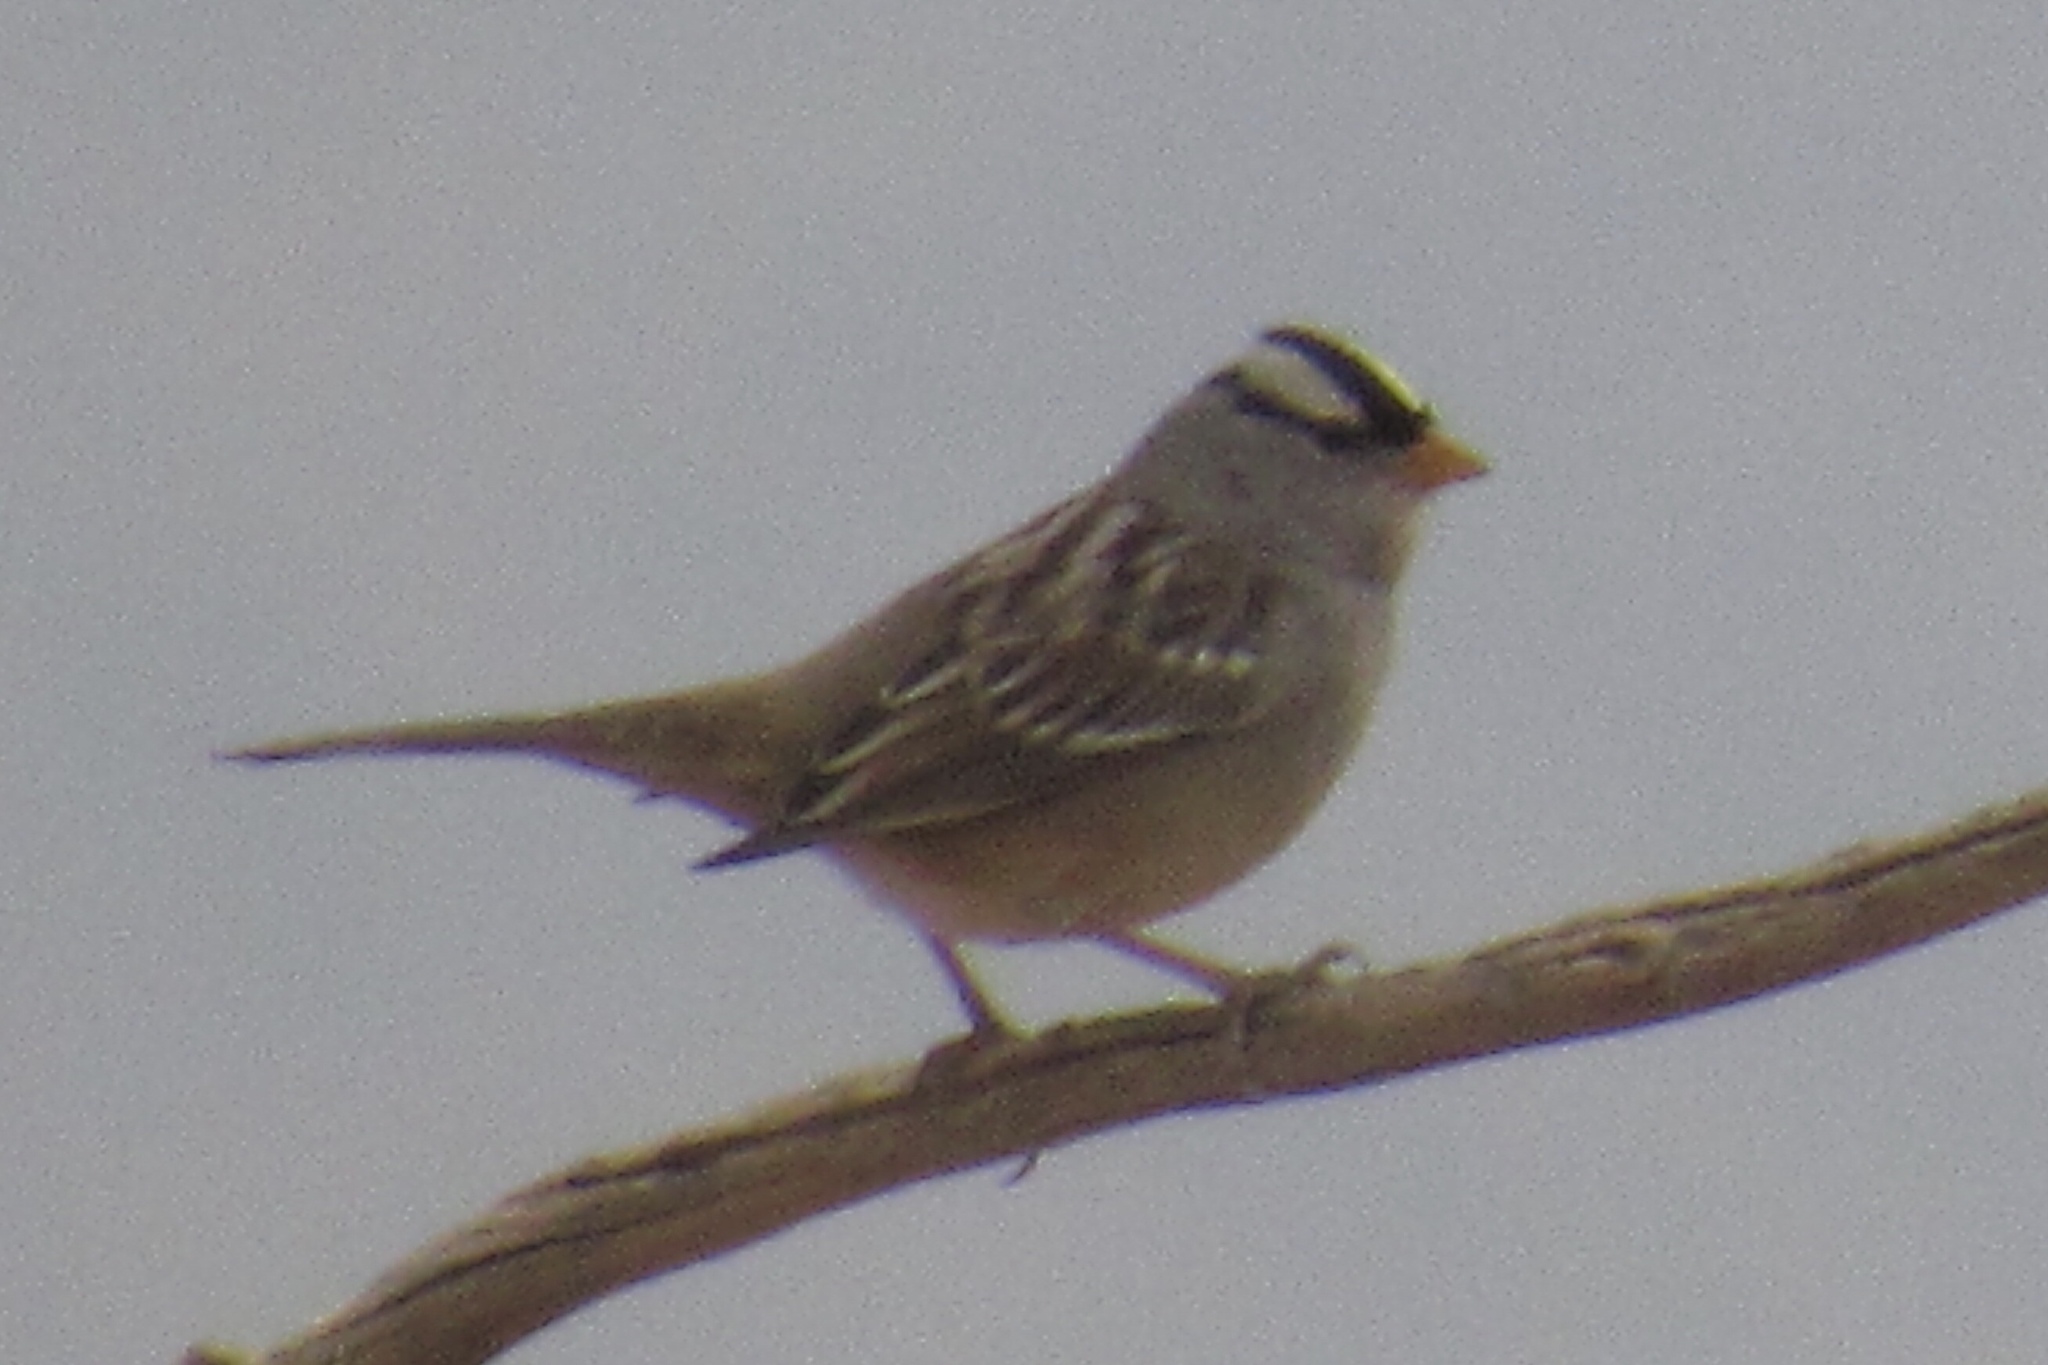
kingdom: Animalia
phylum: Chordata
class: Aves
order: Passeriformes
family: Passerellidae
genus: Zonotrichia
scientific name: Zonotrichia leucophrys
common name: White-crowned sparrow
